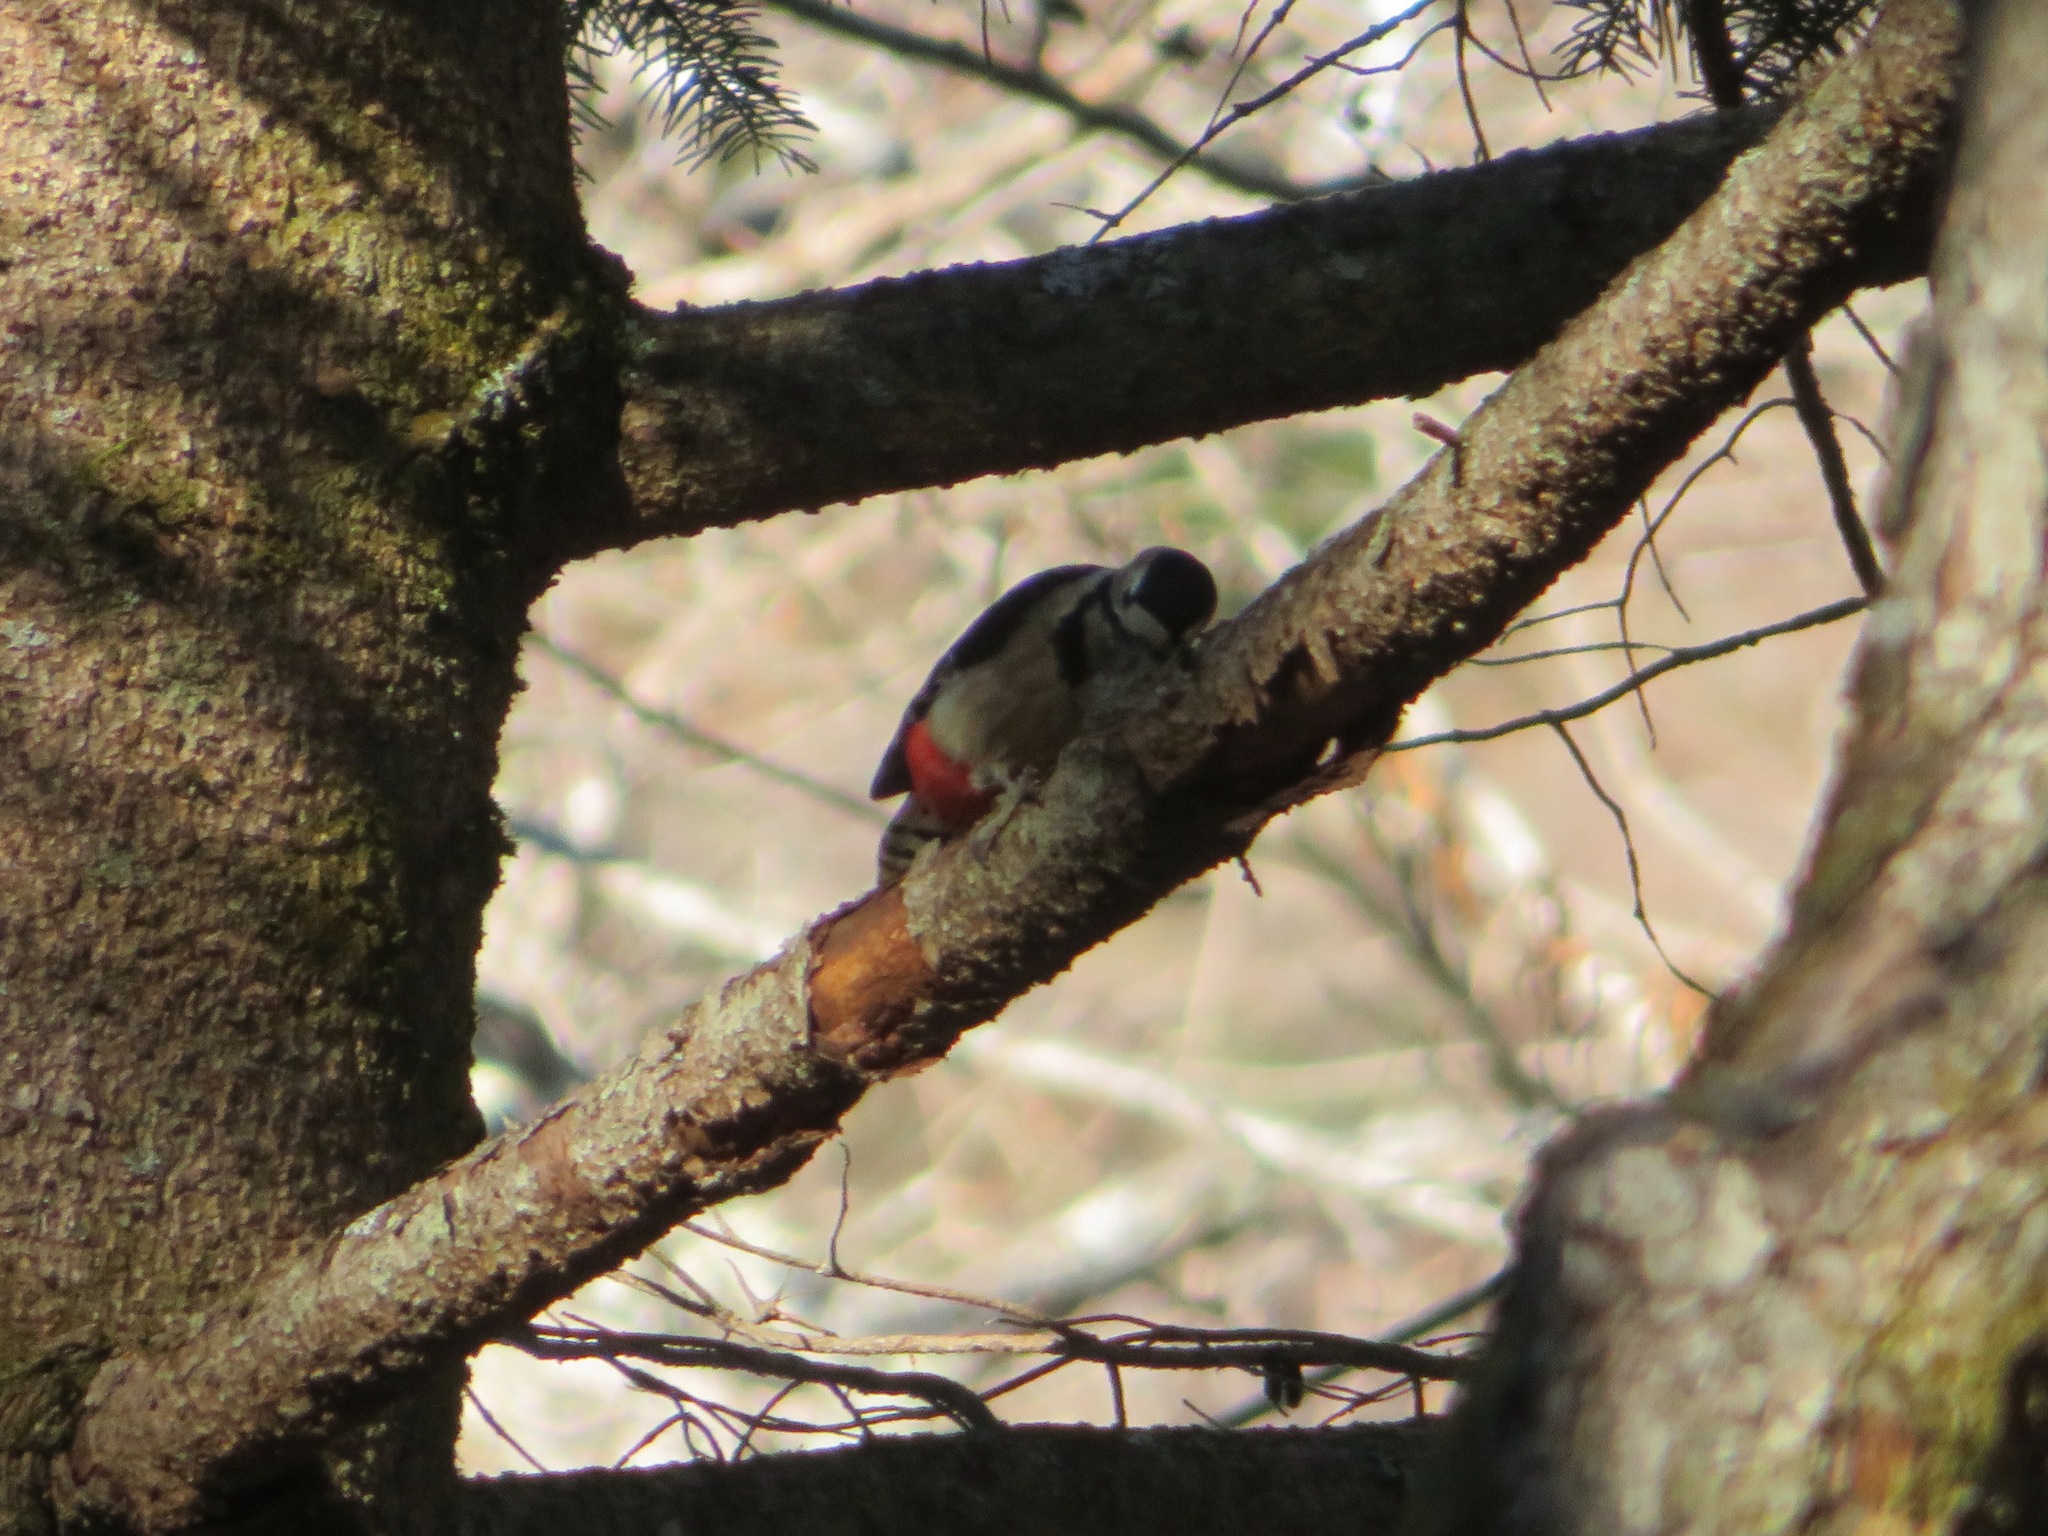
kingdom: Animalia
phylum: Chordata
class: Aves
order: Piciformes
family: Picidae
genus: Dendrocopos
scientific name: Dendrocopos major
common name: Great spotted woodpecker
